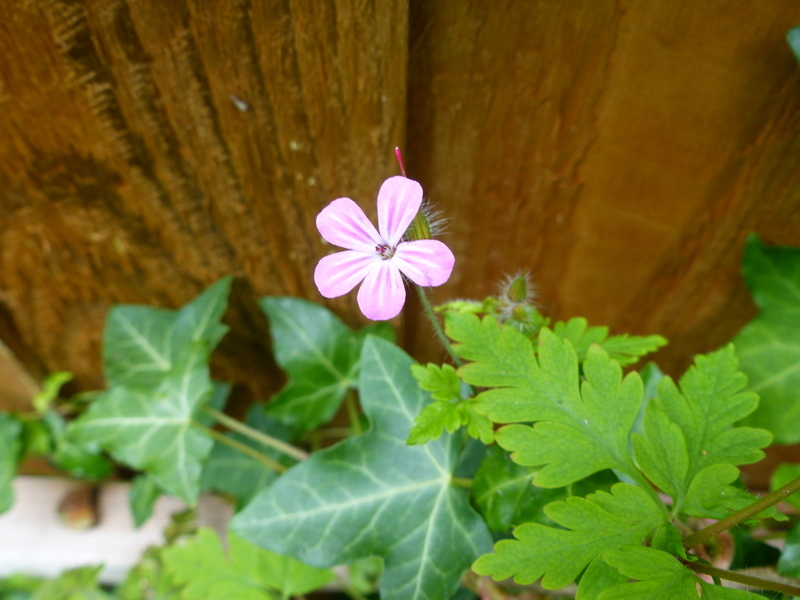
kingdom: Plantae
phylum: Tracheophyta
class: Magnoliopsida
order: Geraniales
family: Geraniaceae
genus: Geranium
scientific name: Geranium robertianum
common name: Herb-robert
